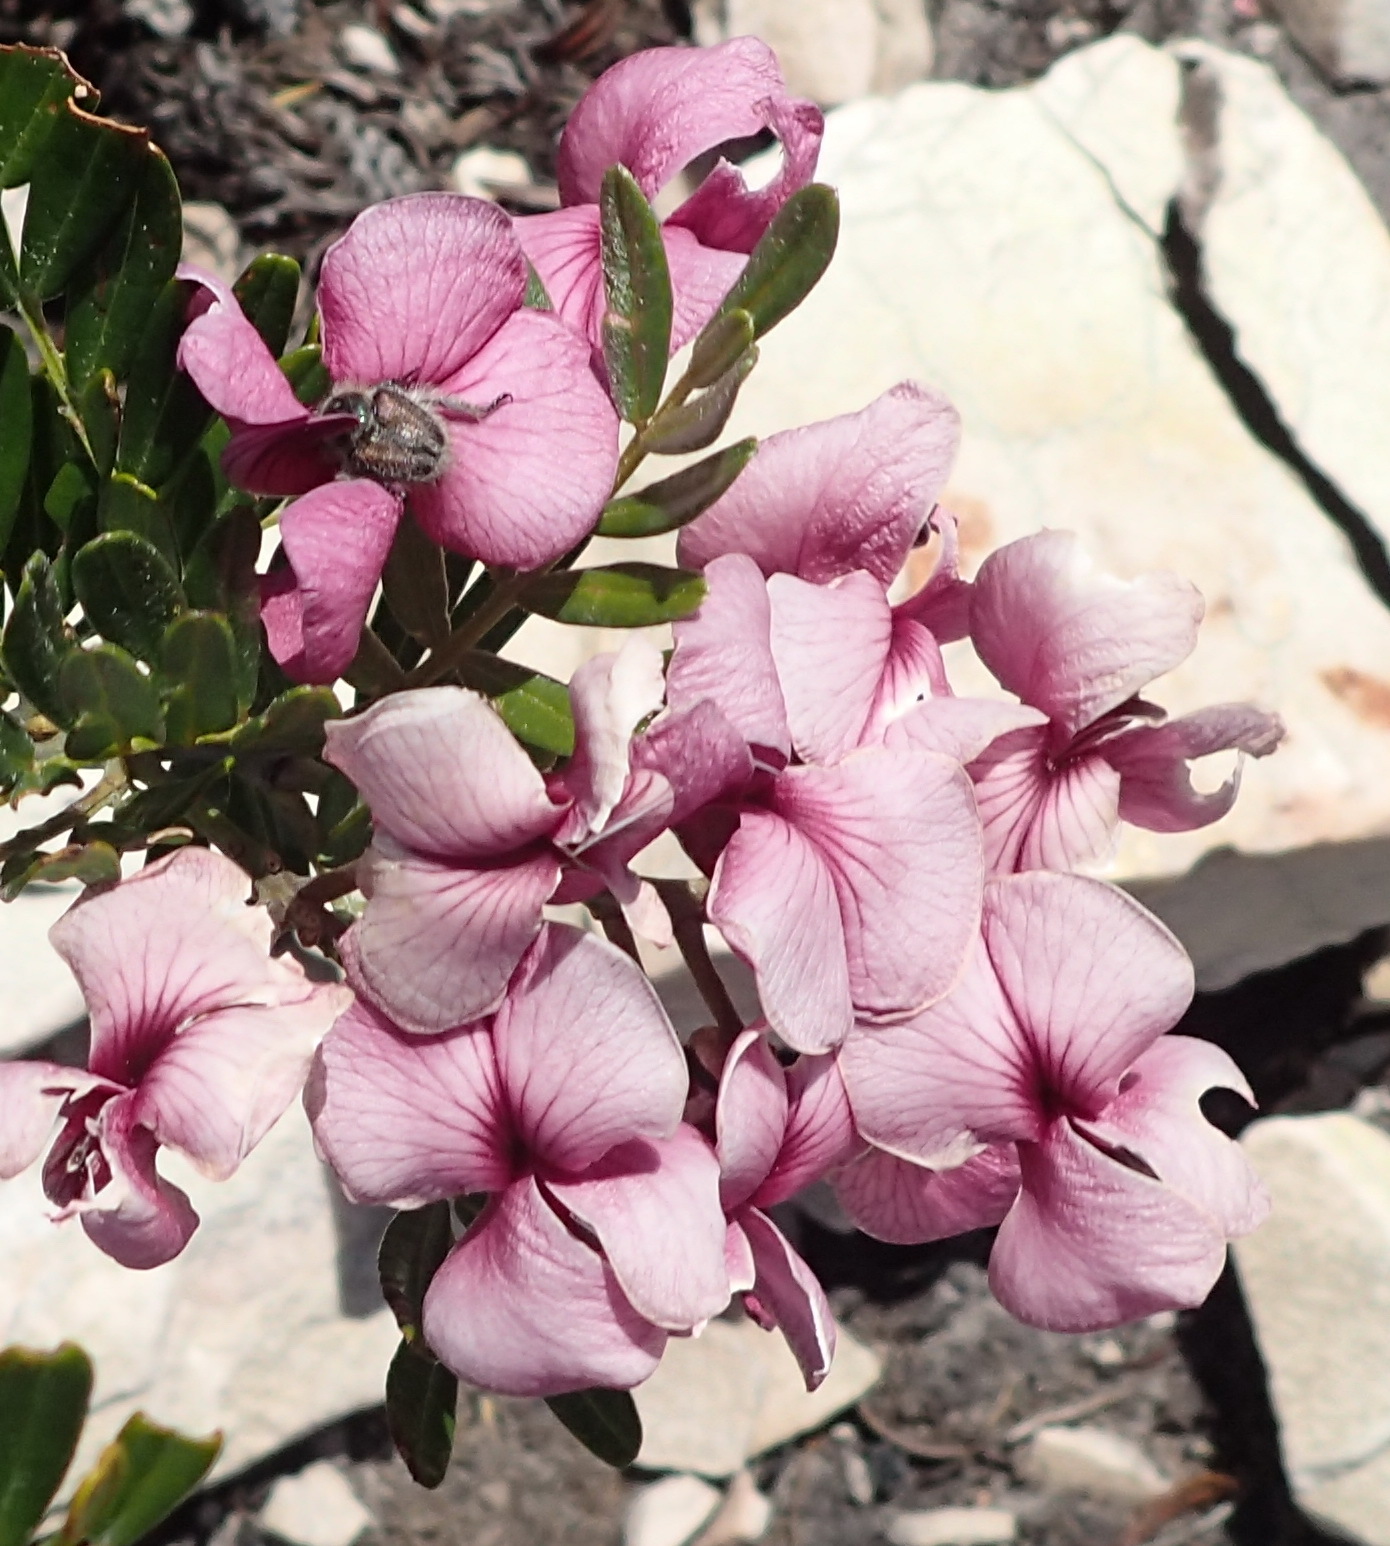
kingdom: Plantae
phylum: Tracheophyta
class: Magnoliopsida
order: Fabales
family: Fabaceae
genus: Virgilia
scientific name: Virgilia divaricata
